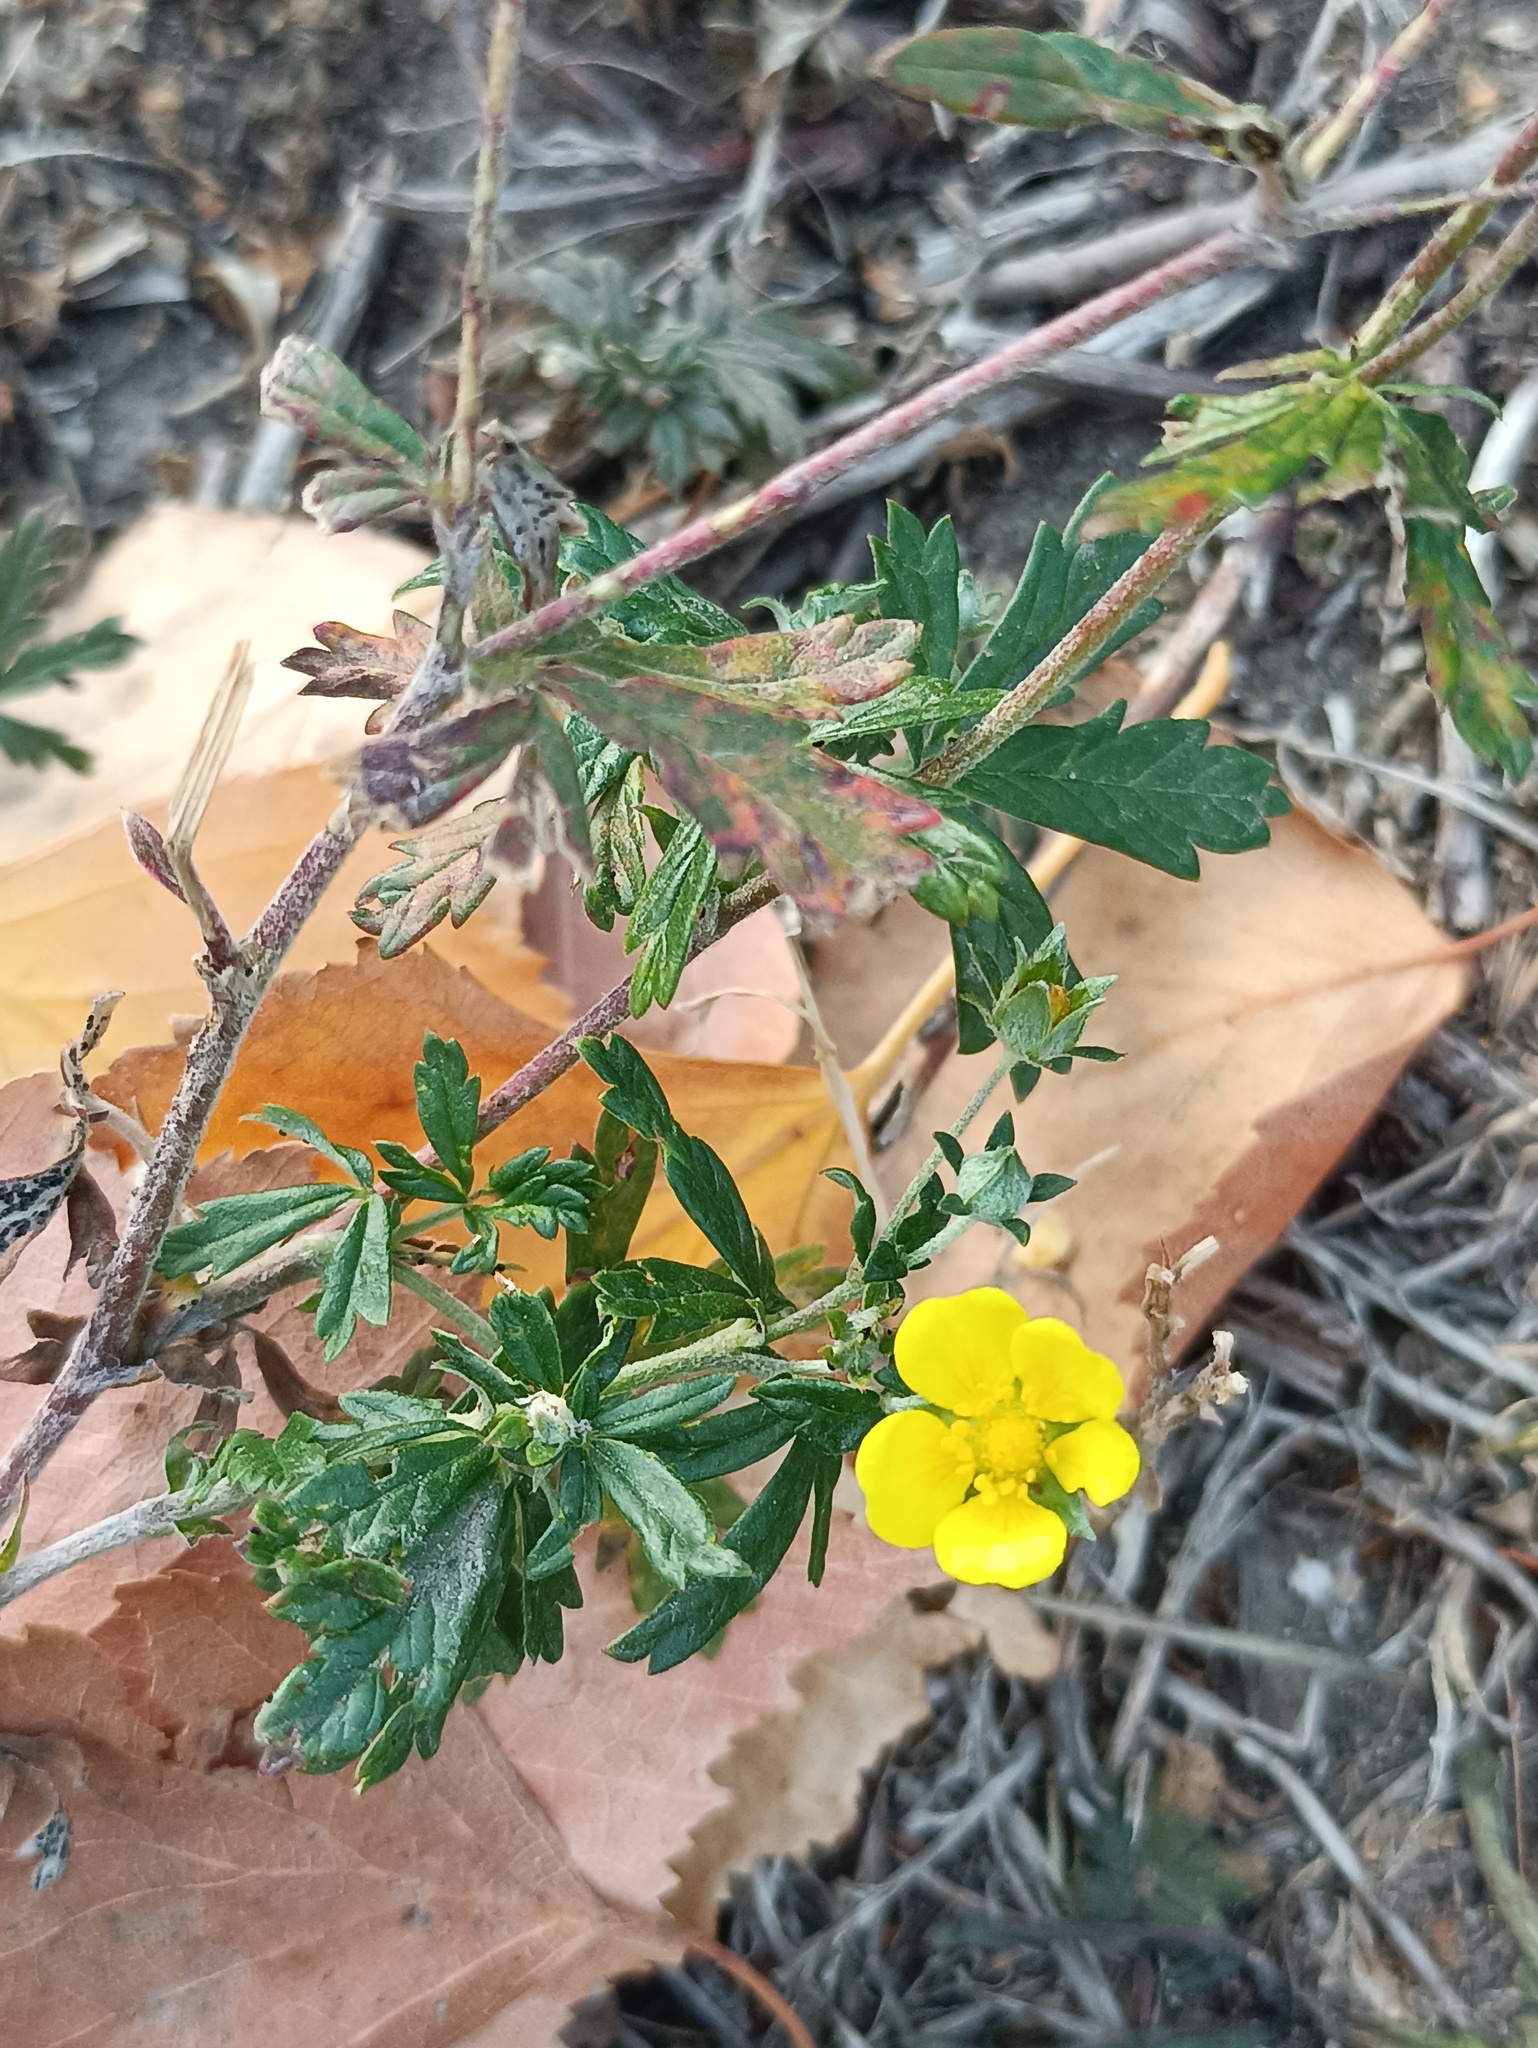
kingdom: Plantae
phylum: Tracheophyta
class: Magnoliopsida
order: Rosales
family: Rosaceae
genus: Potentilla
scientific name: Potentilla argentea
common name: Hoary cinquefoil
